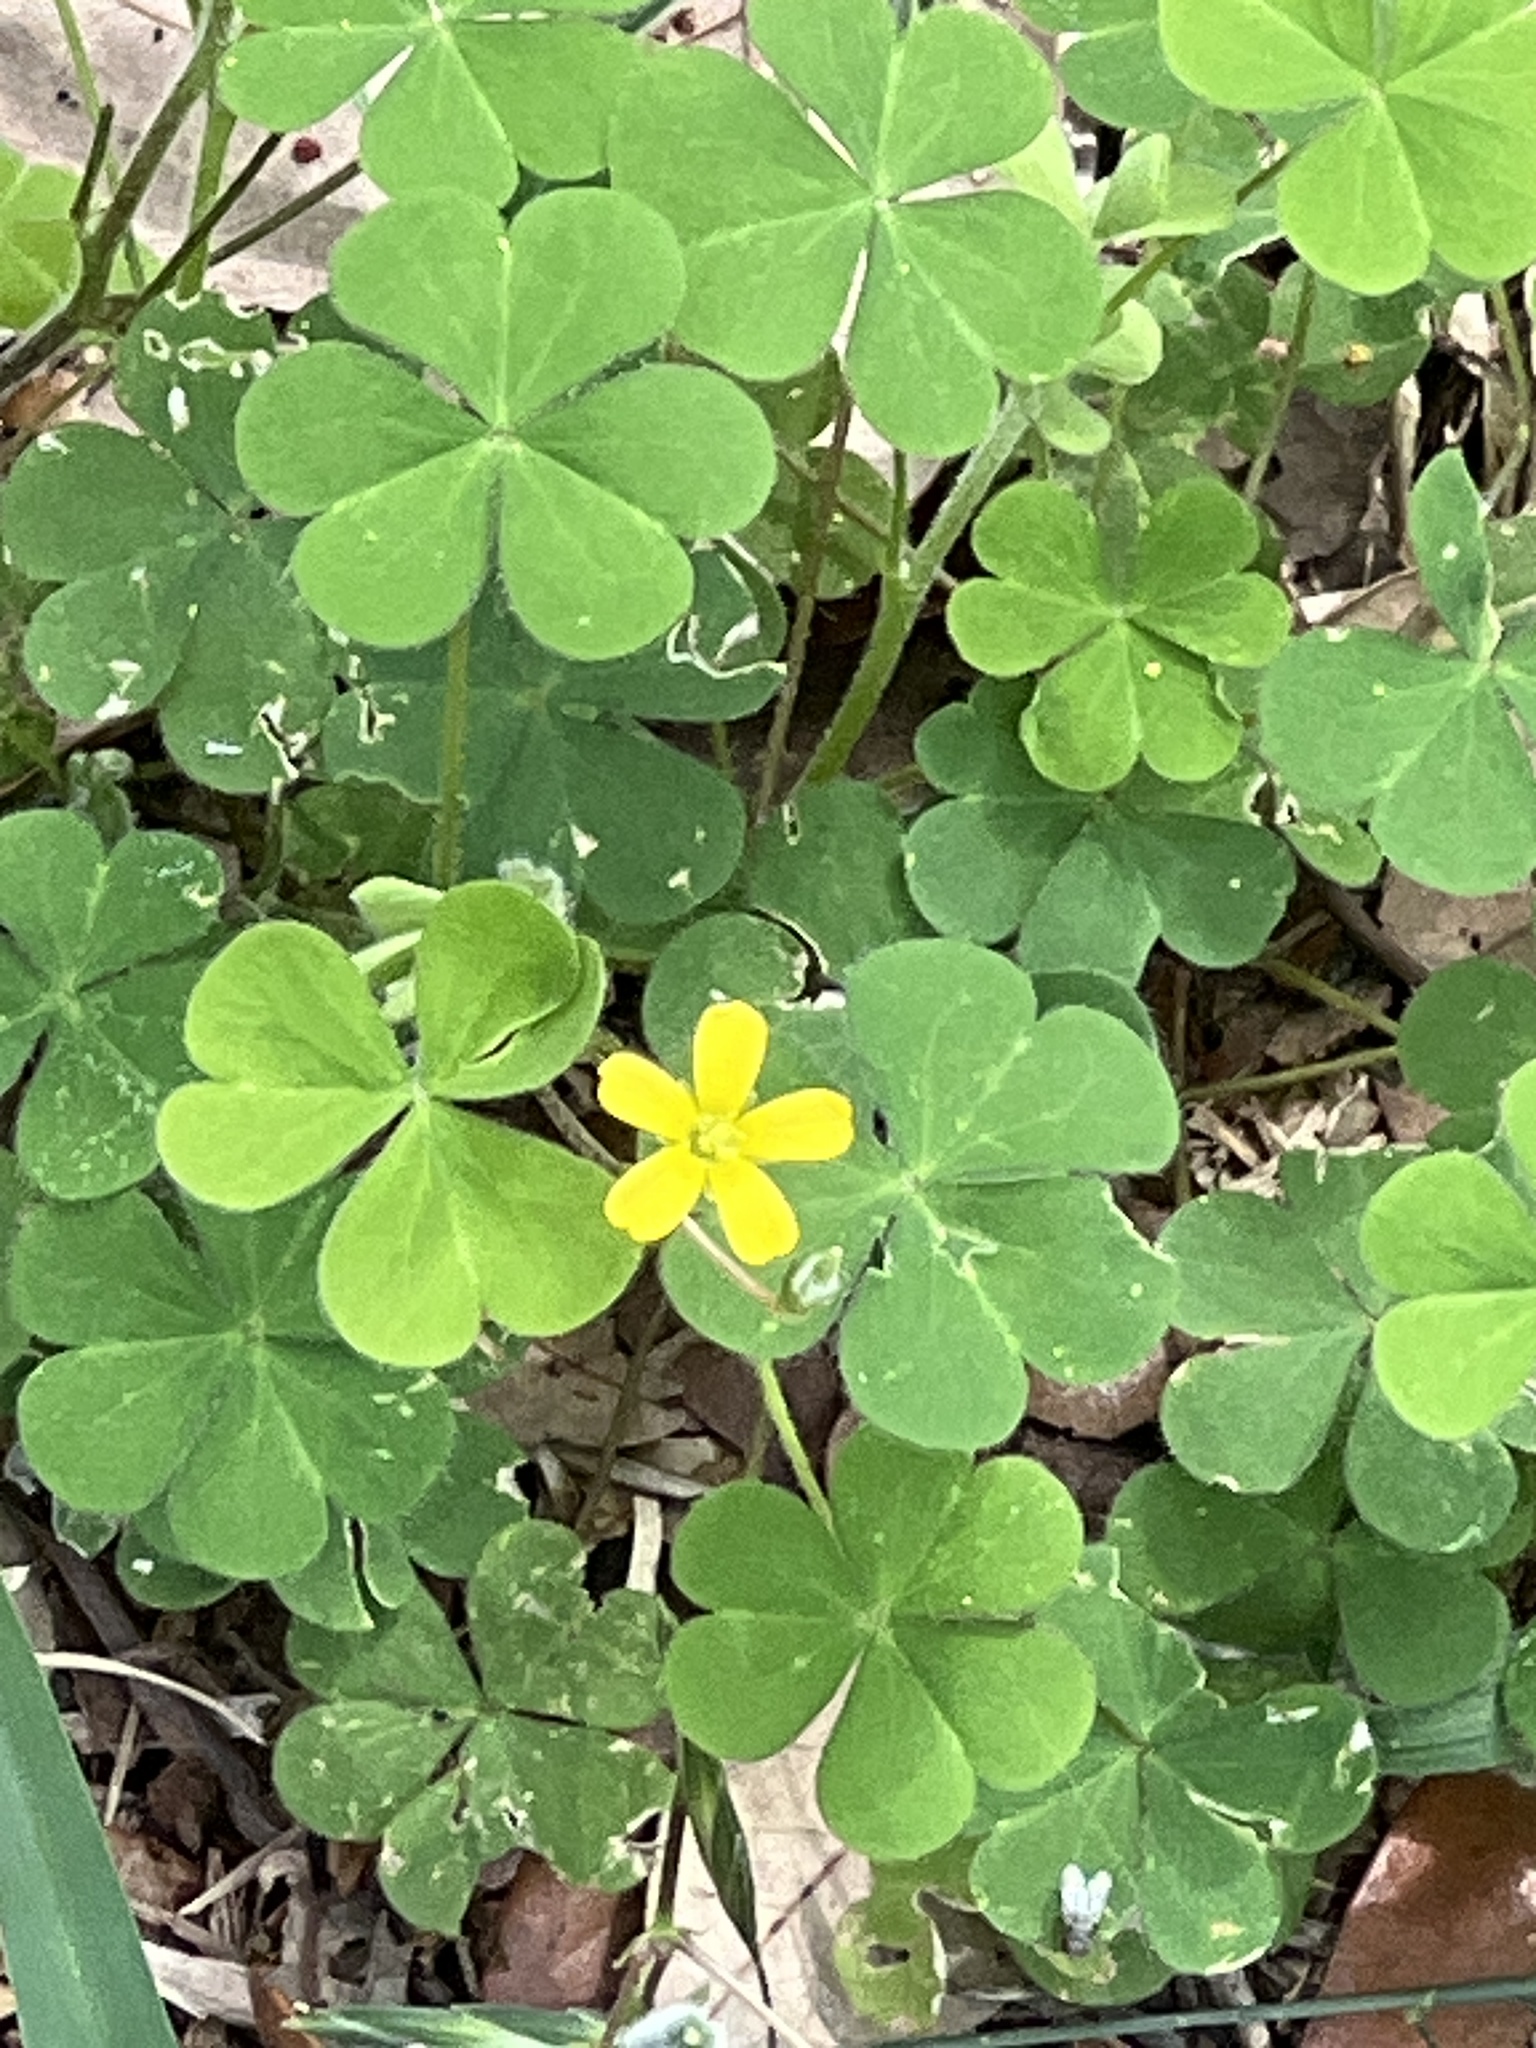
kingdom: Plantae
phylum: Tracheophyta
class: Magnoliopsida
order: Oxalidales
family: Oxalidaceae
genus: Oxalis
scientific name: Oxalis corniculata
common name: Procumbent yellow-sorrel
